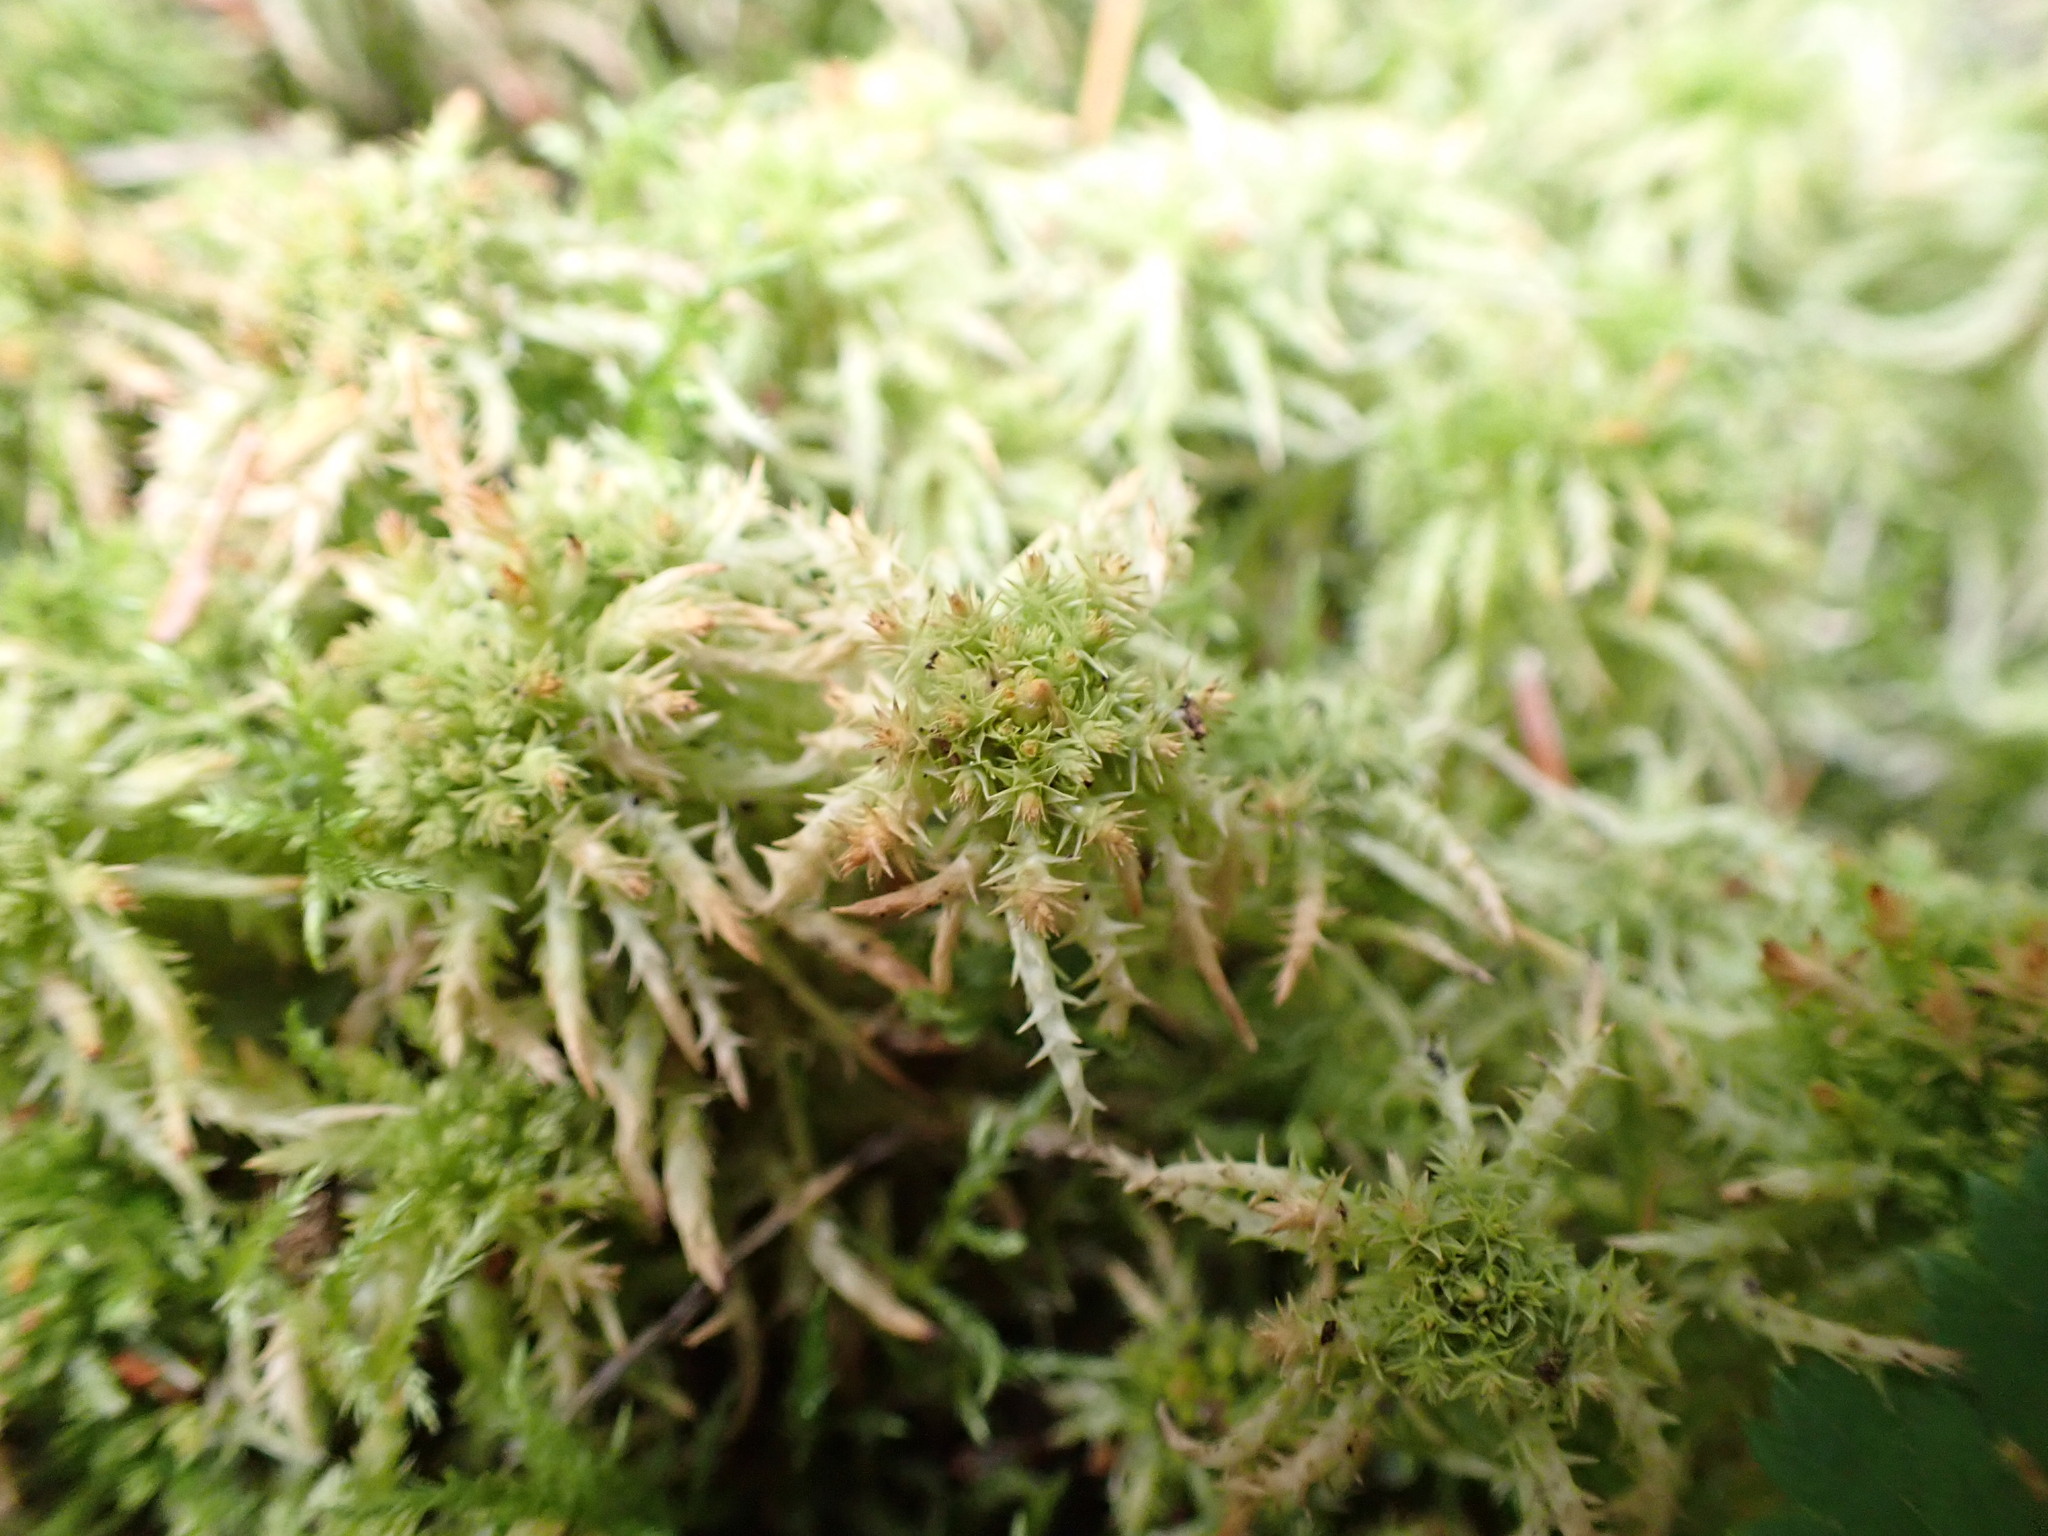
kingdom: Plantae
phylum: Bryophyta
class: Sphagnopsida
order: Sphagnales
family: Sphagnaceae
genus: Sphagnum
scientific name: Sphagnum squarrosum
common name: Shaggy peat moss
